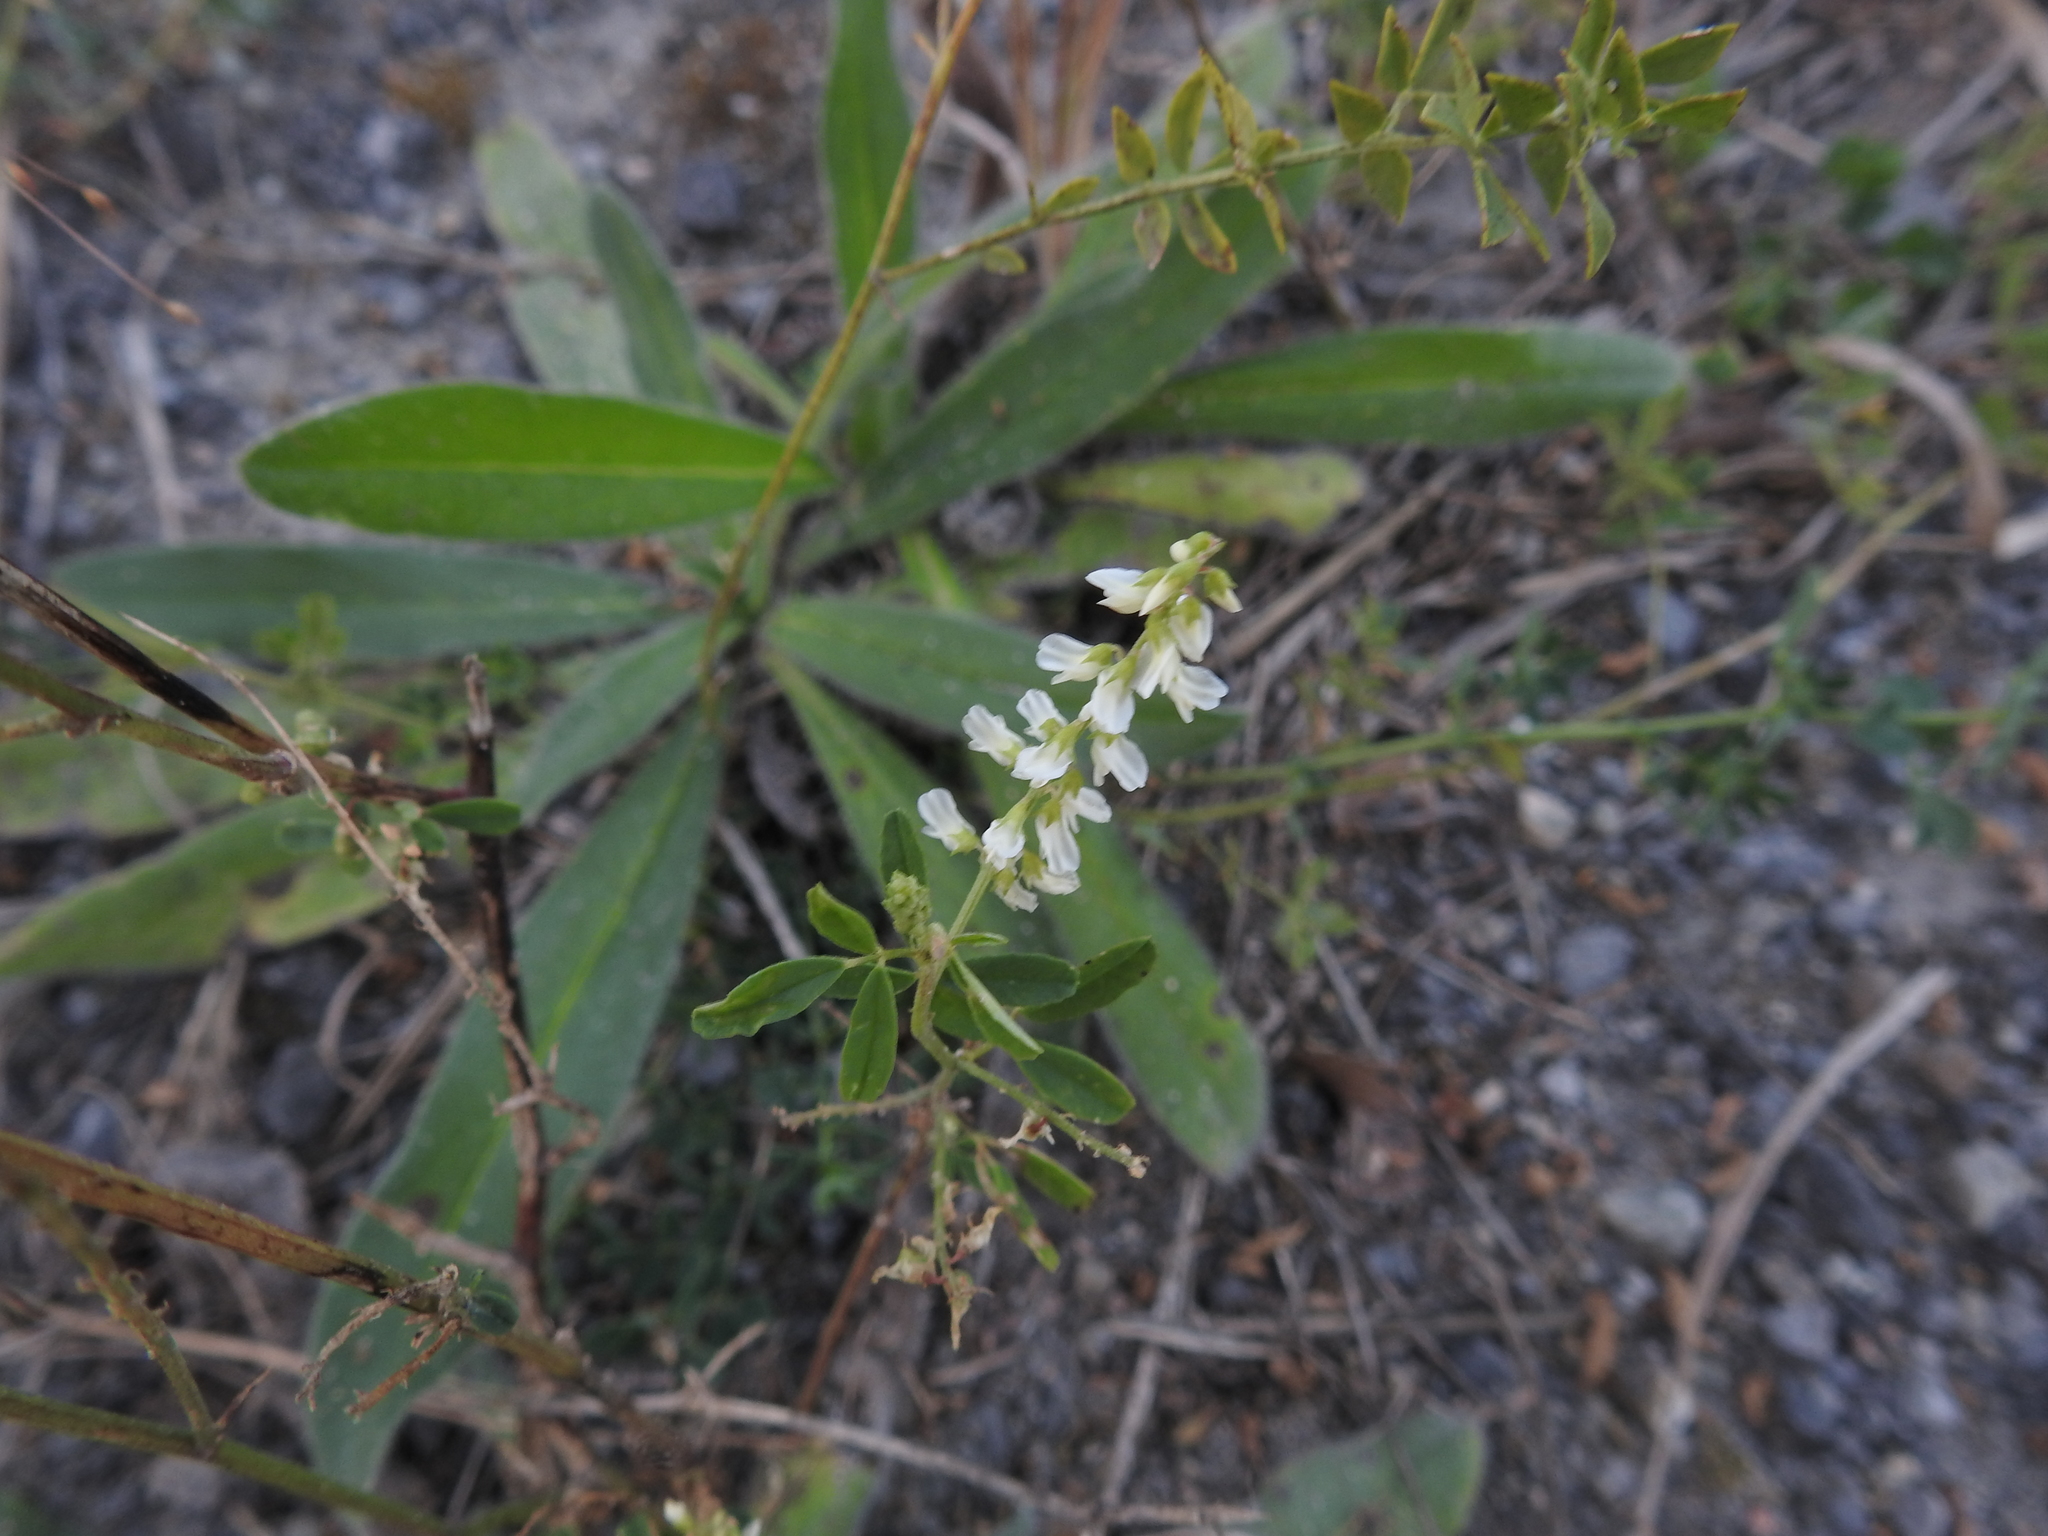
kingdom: Plantae
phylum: Tracheophyta
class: Magnoliopsida
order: Fabales
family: Fabaceae
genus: Melilotus
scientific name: Melilotus albus
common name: White melilot
